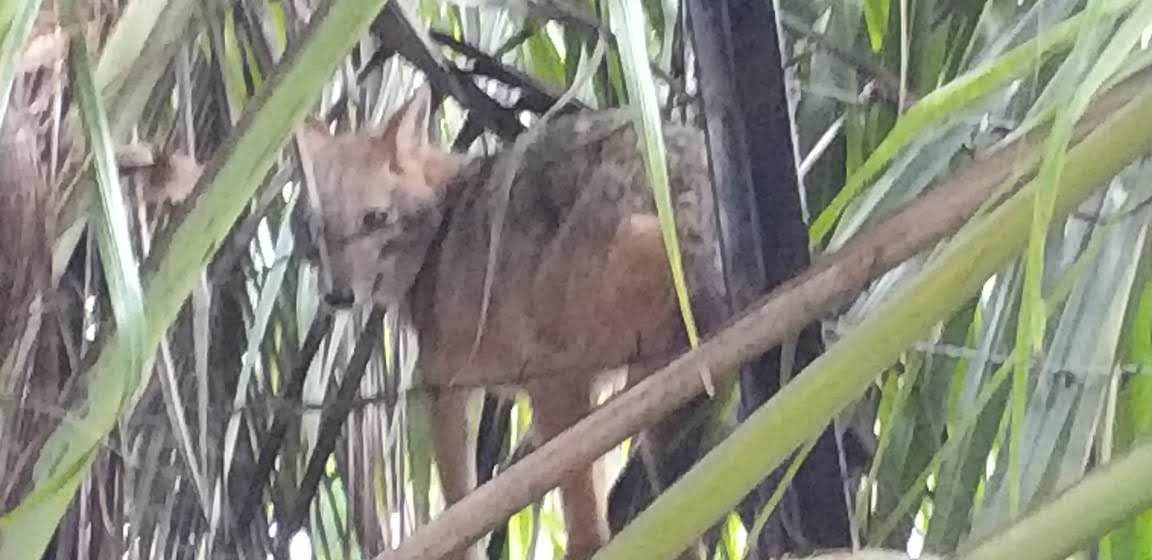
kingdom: Animalia
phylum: Chordata
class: Mammalia
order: Carnivora
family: Canidae
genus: Canis
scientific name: Canis aureus
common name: Golden jackal
